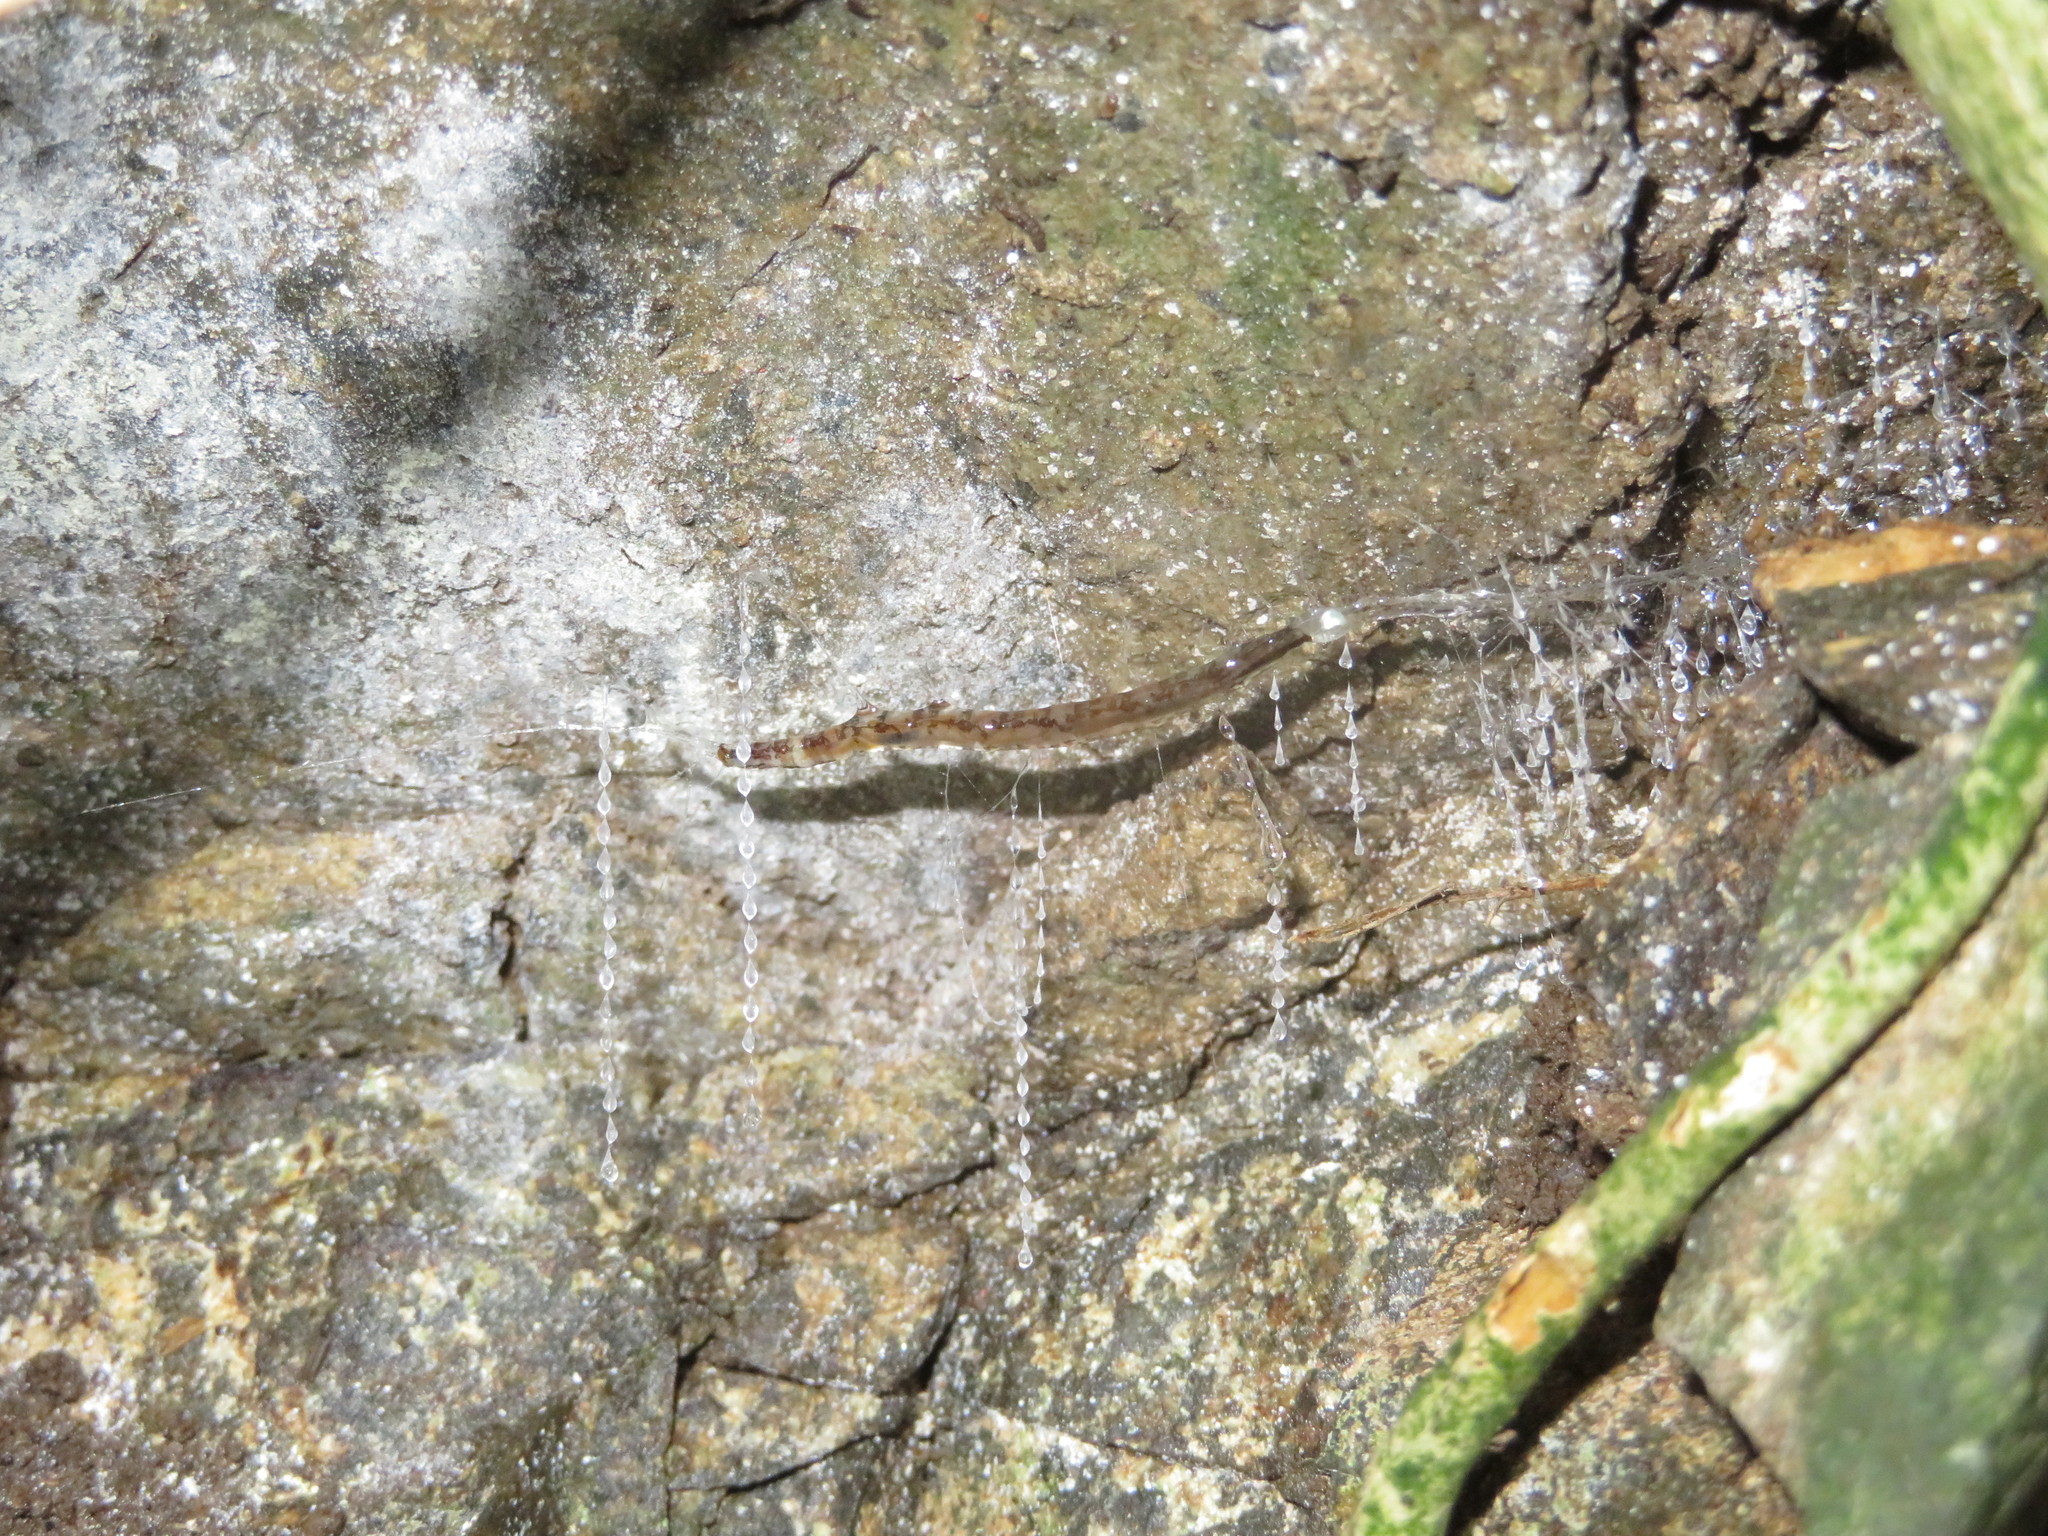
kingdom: Animalia
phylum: Arthropoda
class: Insecta
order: Diptera
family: Keroplatidae
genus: Arachnocampa
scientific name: Arachnocampa luminosa
